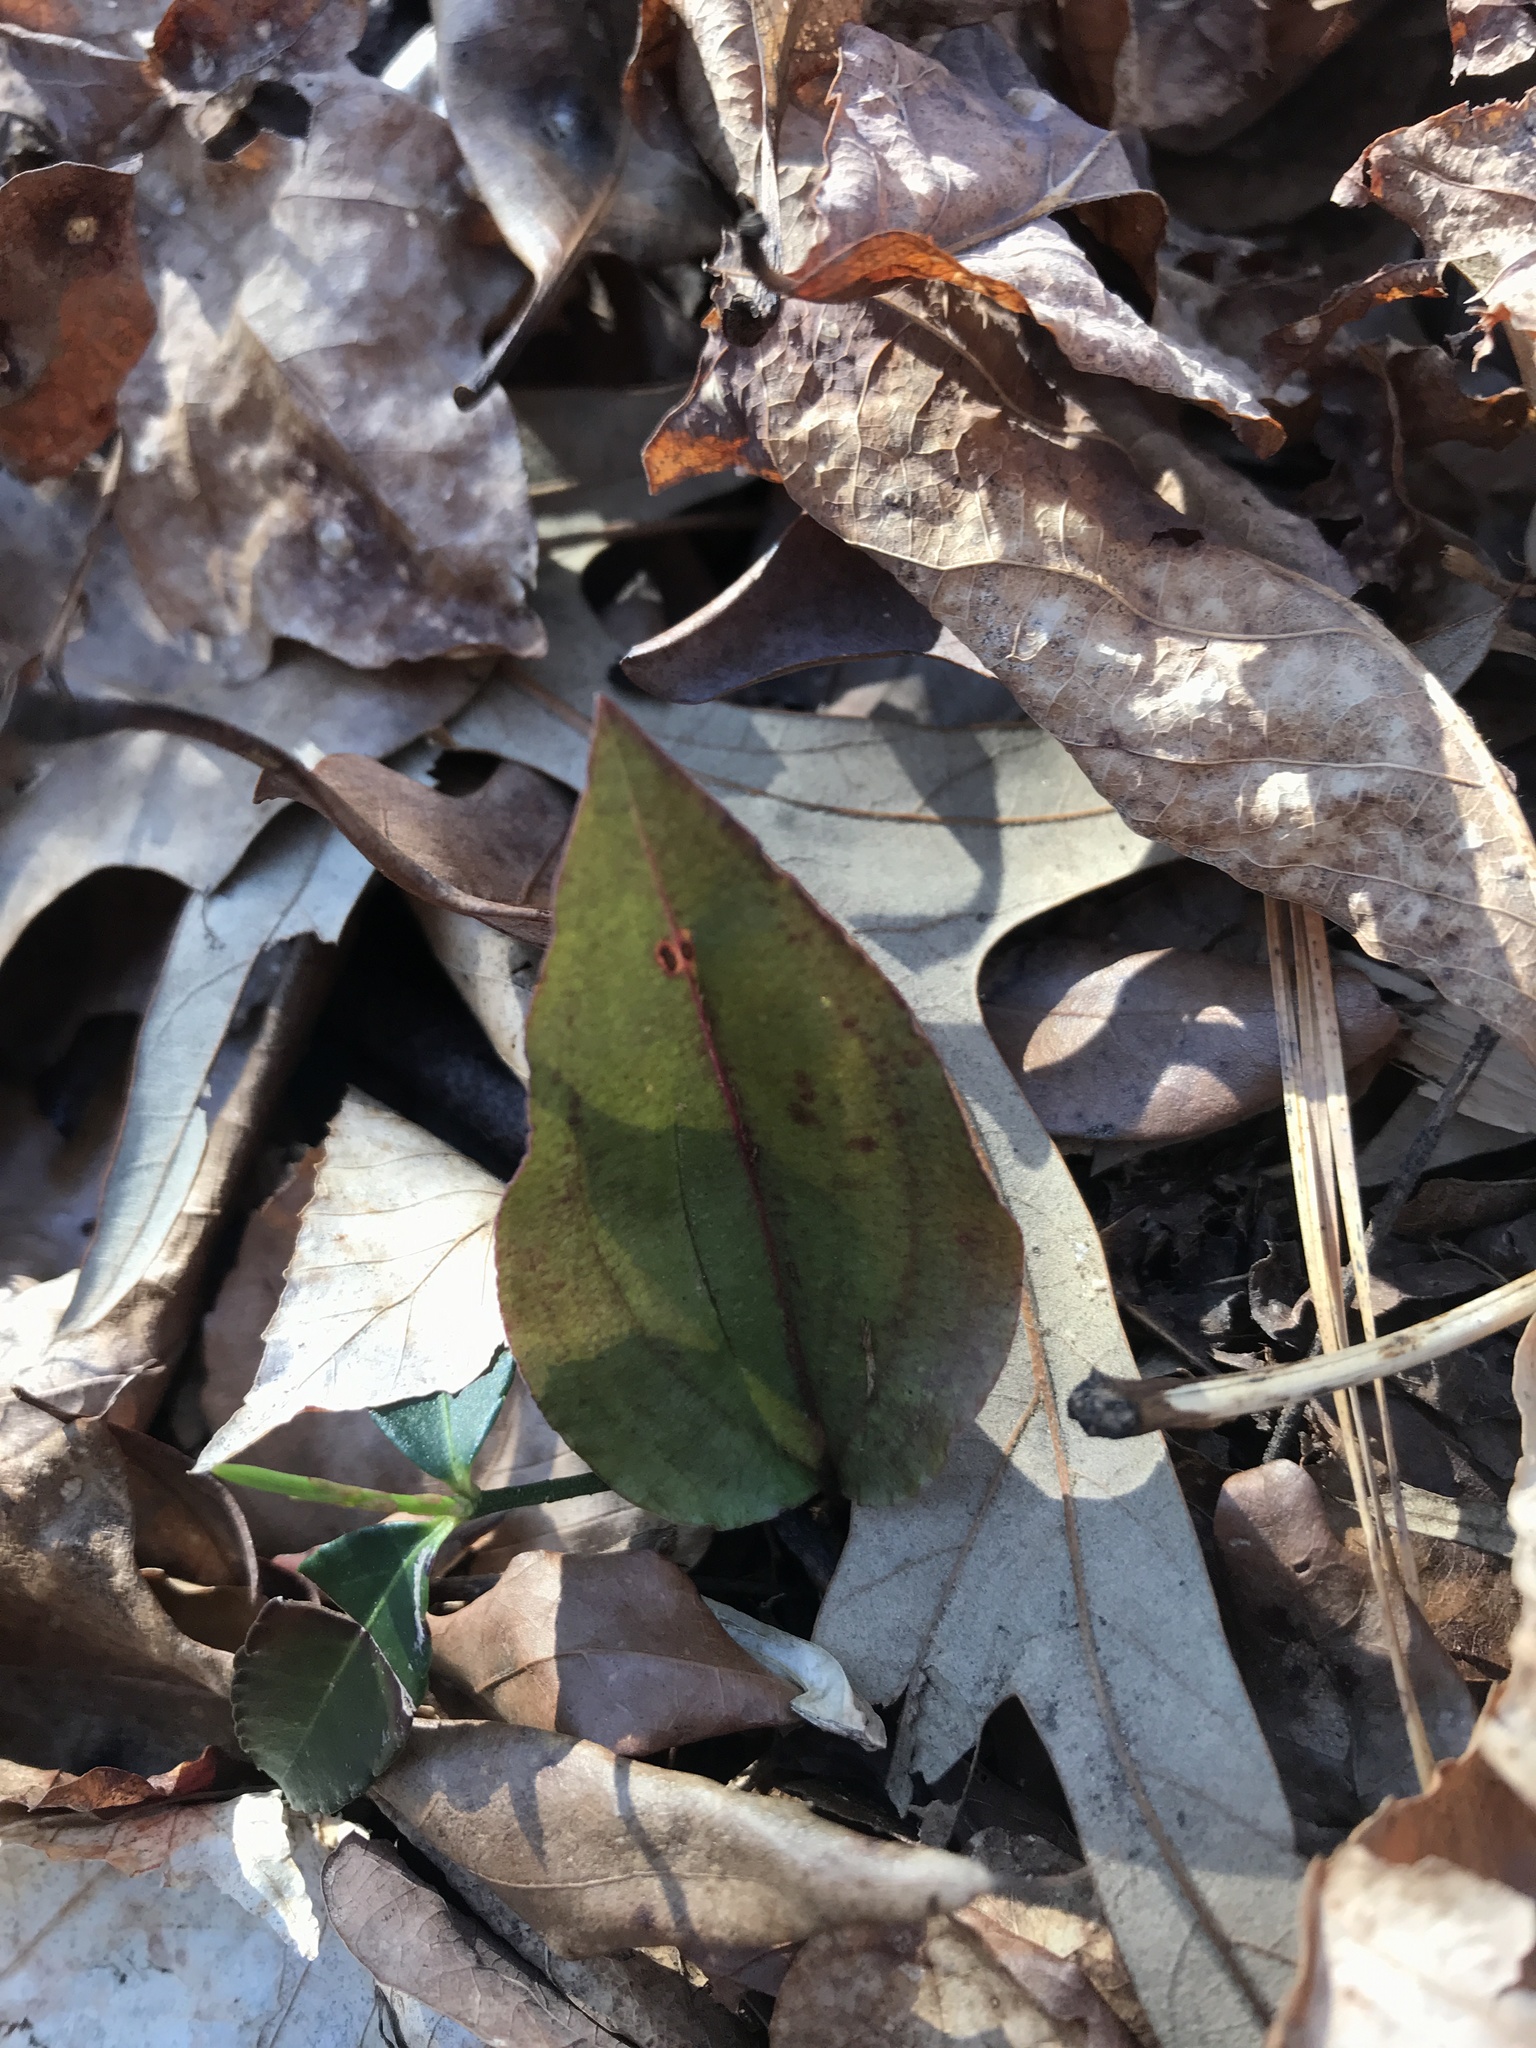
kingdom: Plantae
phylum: Tracheophyta
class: Liliopsida
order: Asparagales
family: Orchidaceae
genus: Tipularia
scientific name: Tipularia discolor
